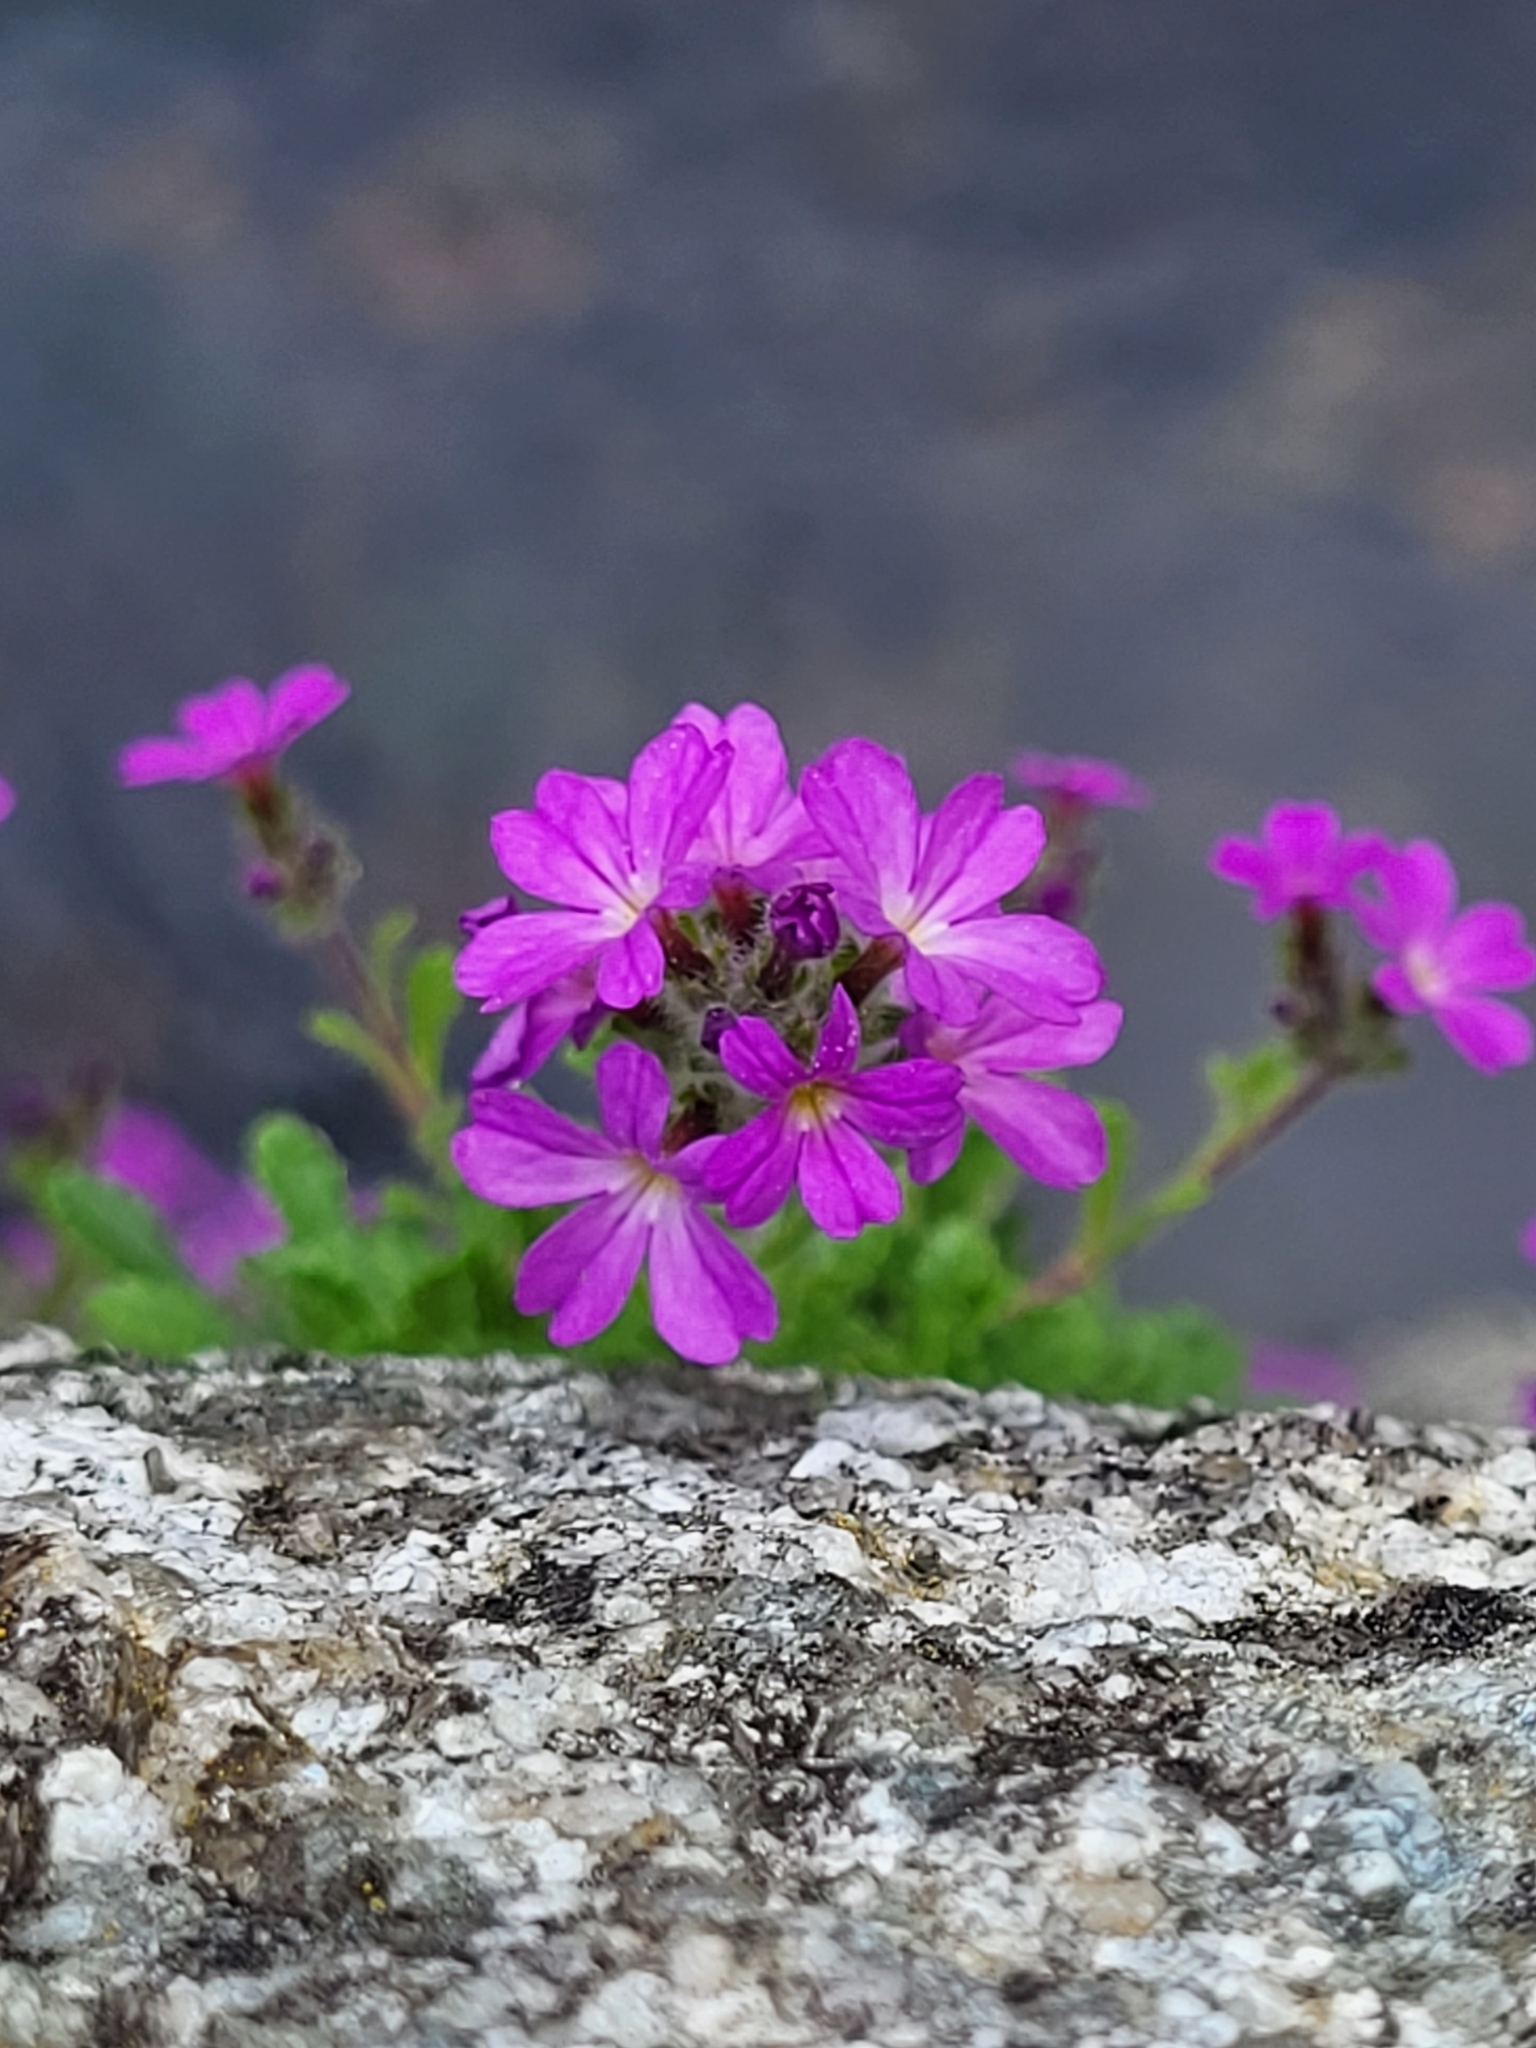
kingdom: Plantae
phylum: Tracheophyta
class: Magnoliopsida
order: Lamiales
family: Plantaginaceae
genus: Erinus
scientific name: Erinus alpinus
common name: Fairy foxglove
